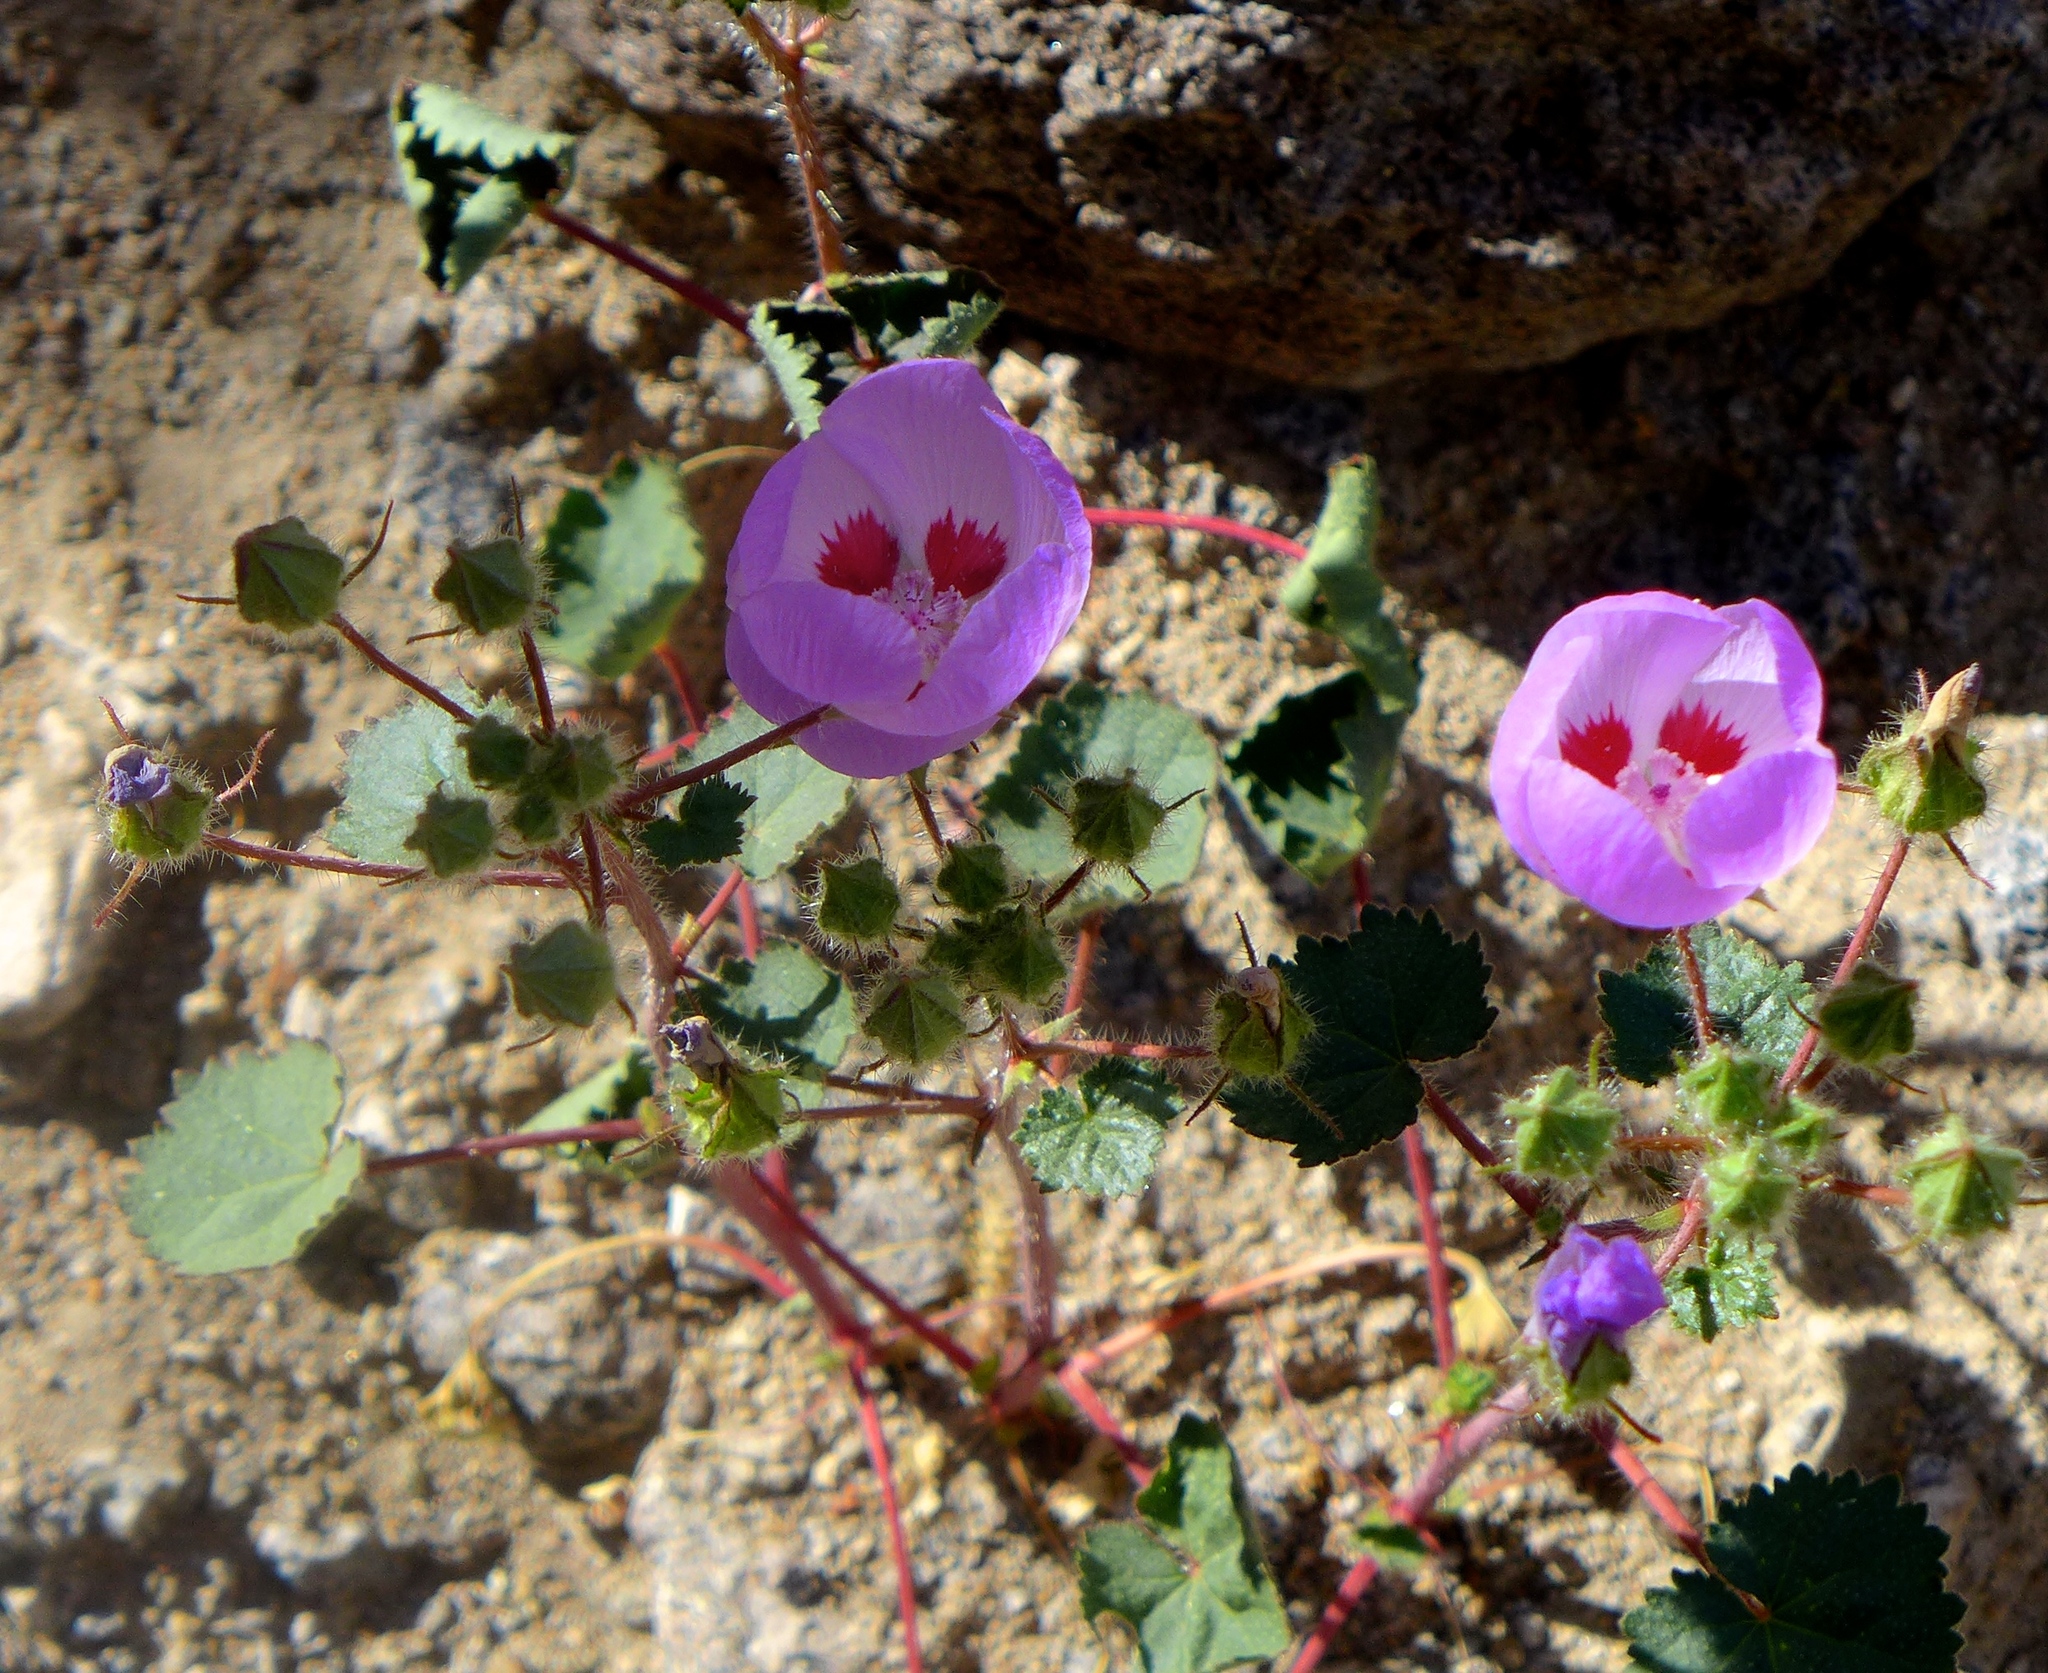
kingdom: Plantae
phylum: Tracheophyta
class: Magnoliopsida
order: Malvales
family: Malvaceae
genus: Eremalche
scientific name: Eremalche rotundifolia
